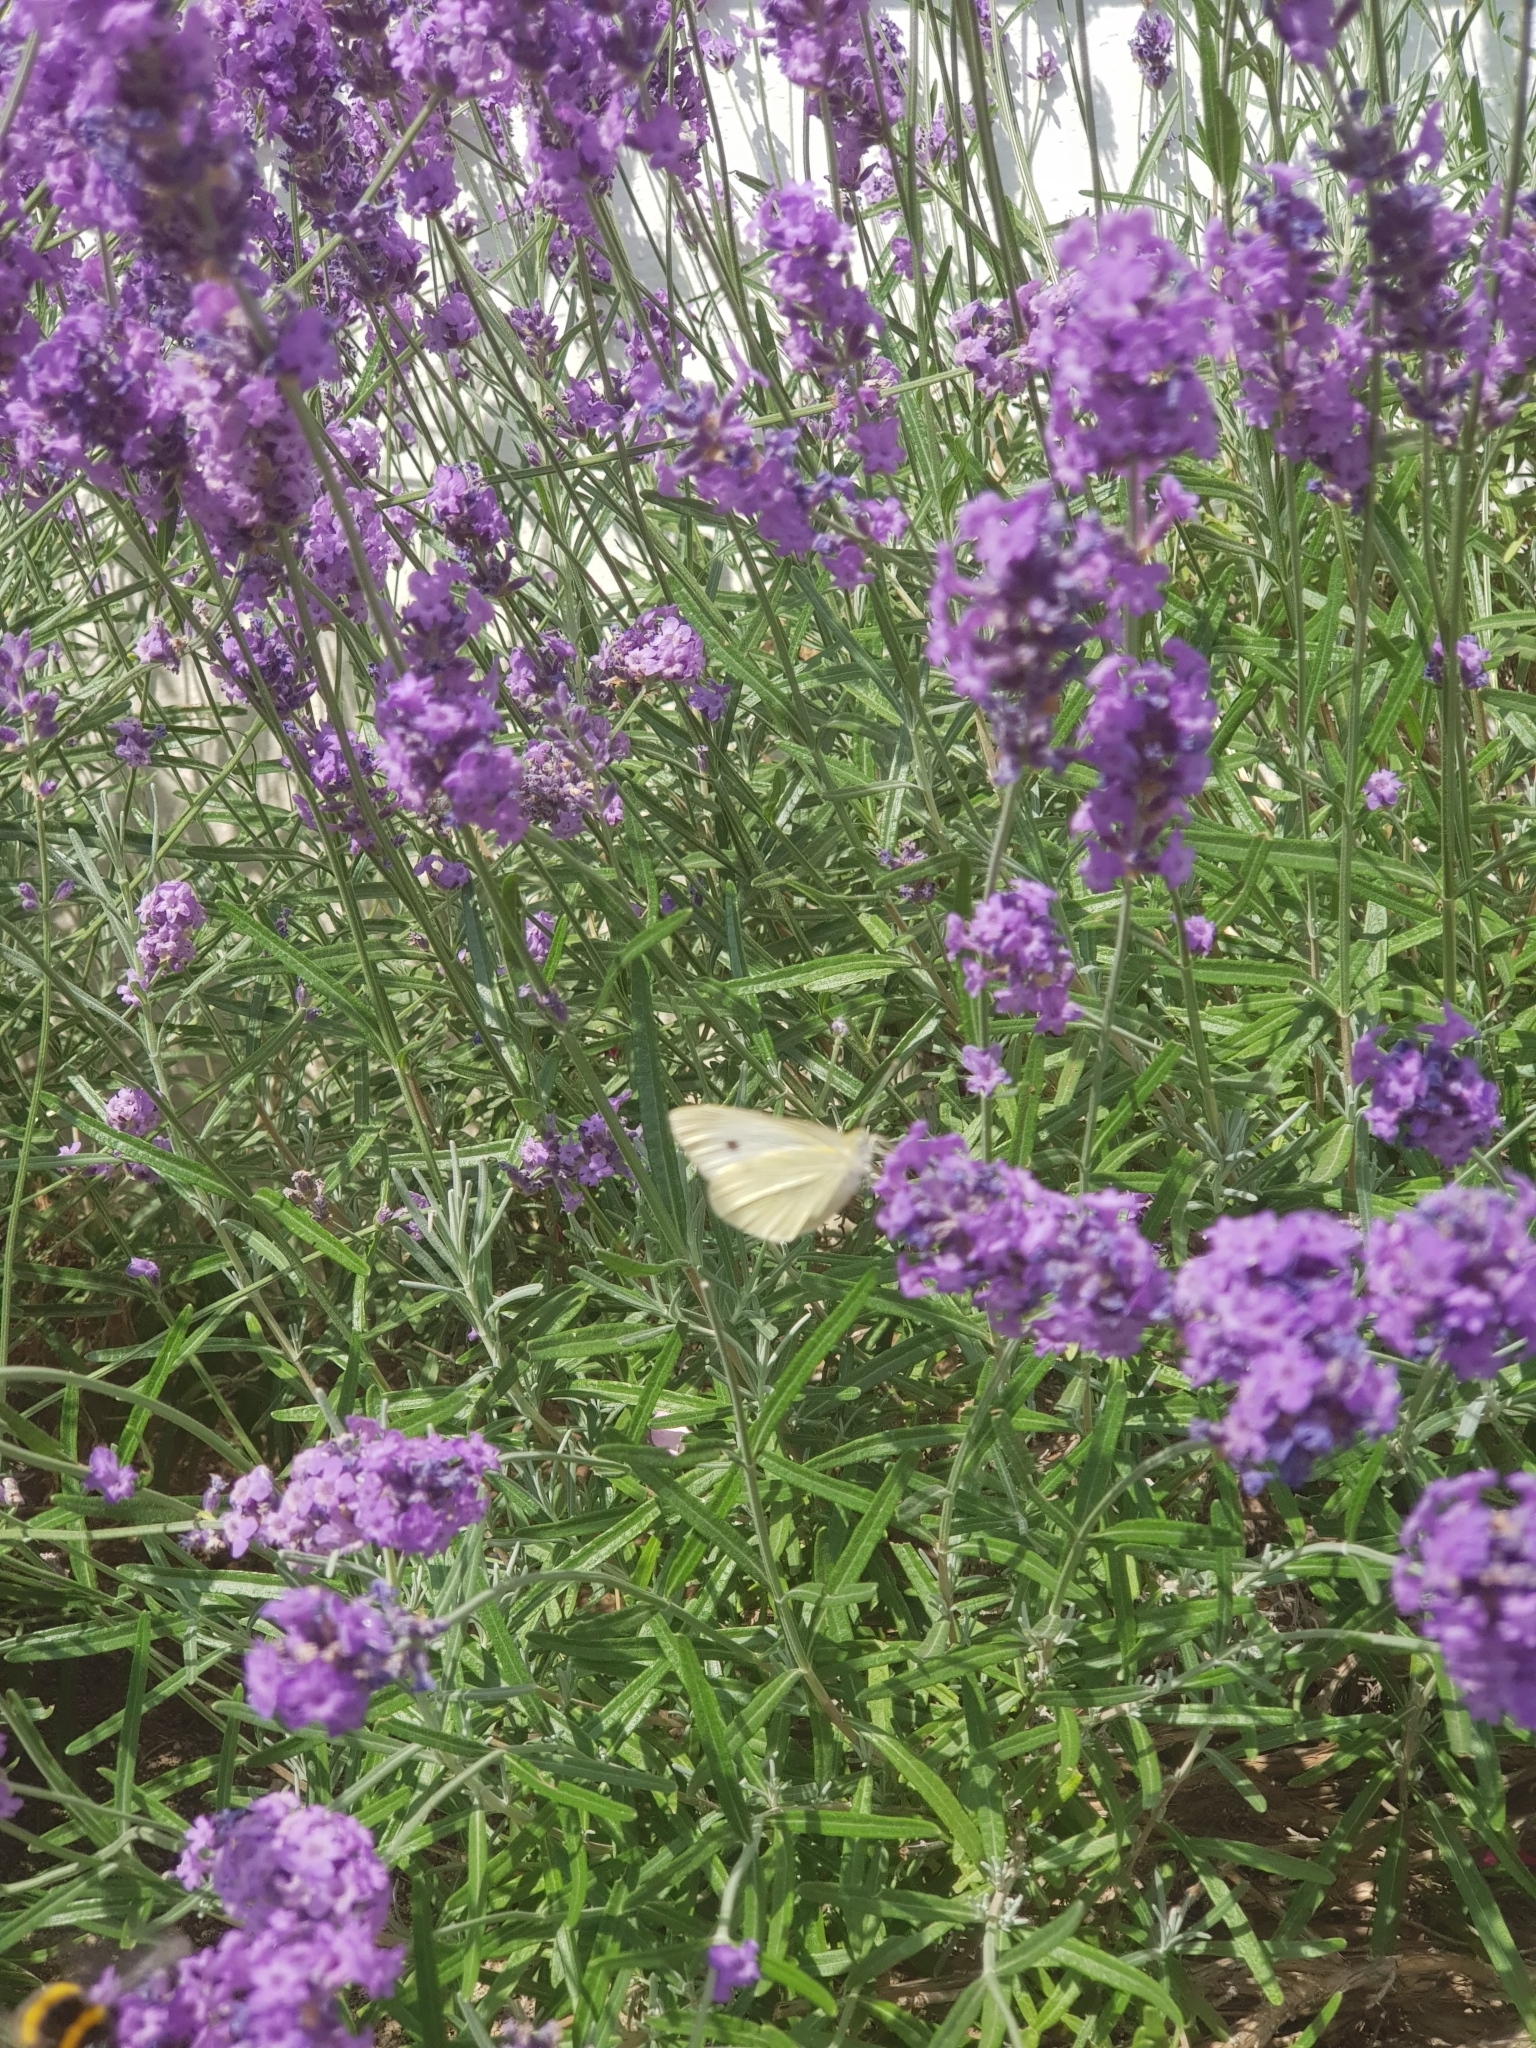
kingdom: Animalia
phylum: Arthropoda
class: Insecta
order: Lepidoptera
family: Pieridae
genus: Pieris
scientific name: Pieris rapae
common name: Small white
